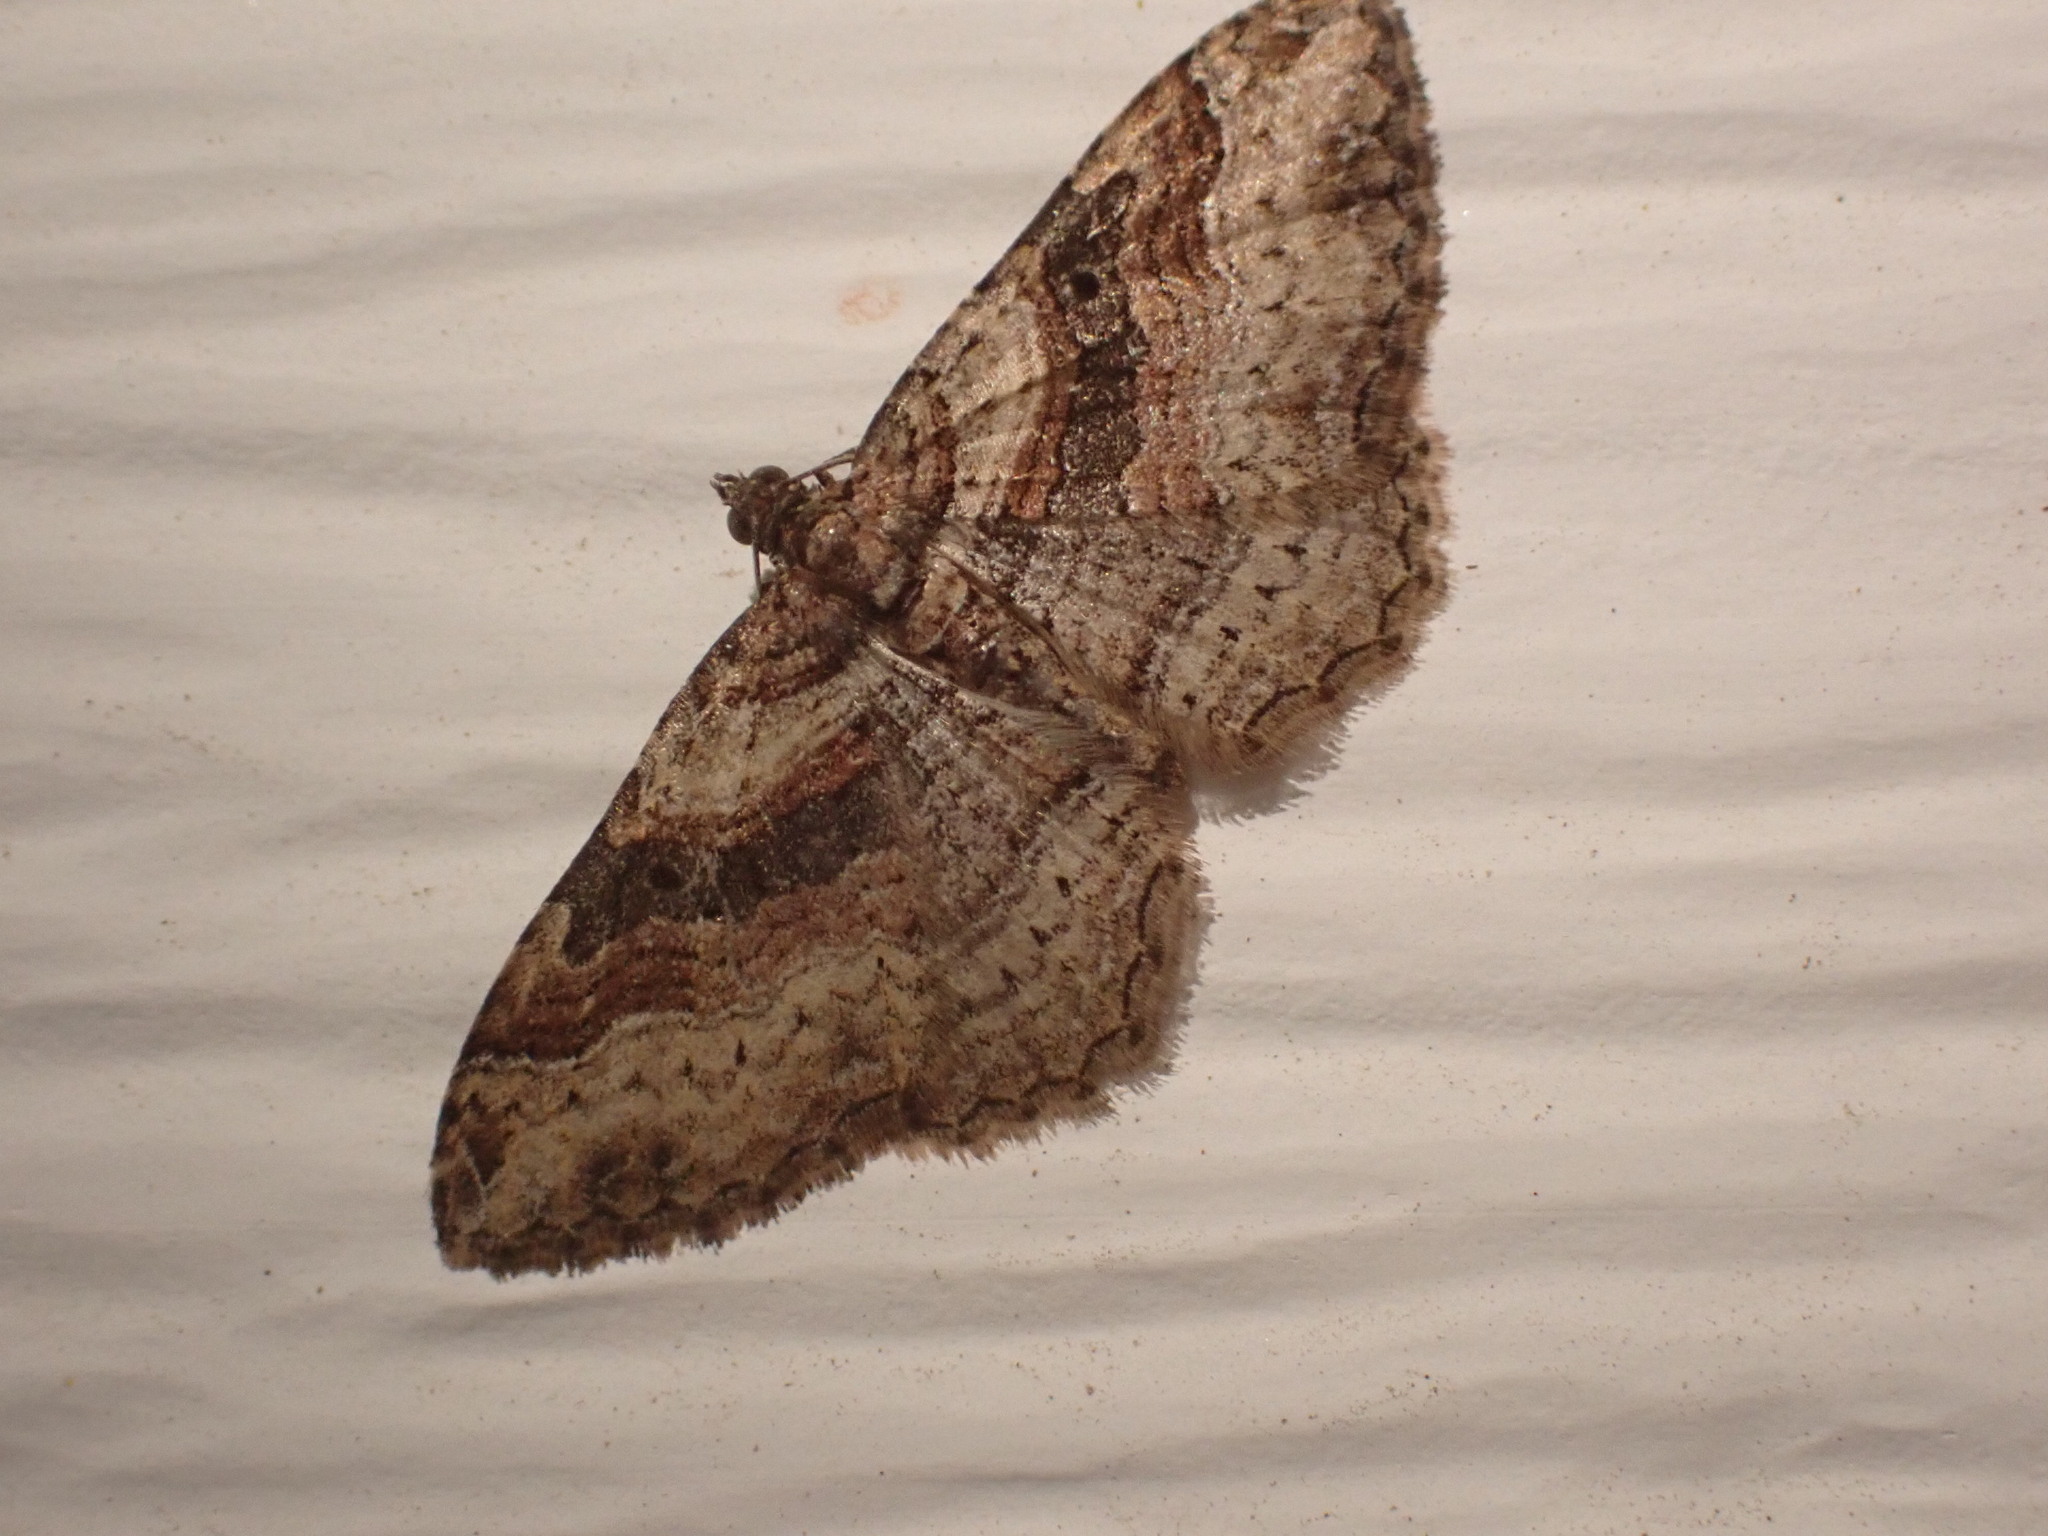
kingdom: Animalia
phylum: Arthropoda
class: Insecta
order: Lepidoptera
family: Geometridae
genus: Costaconvexa
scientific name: Costaconvexa centrostrigaria
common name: Bent-line carpet
